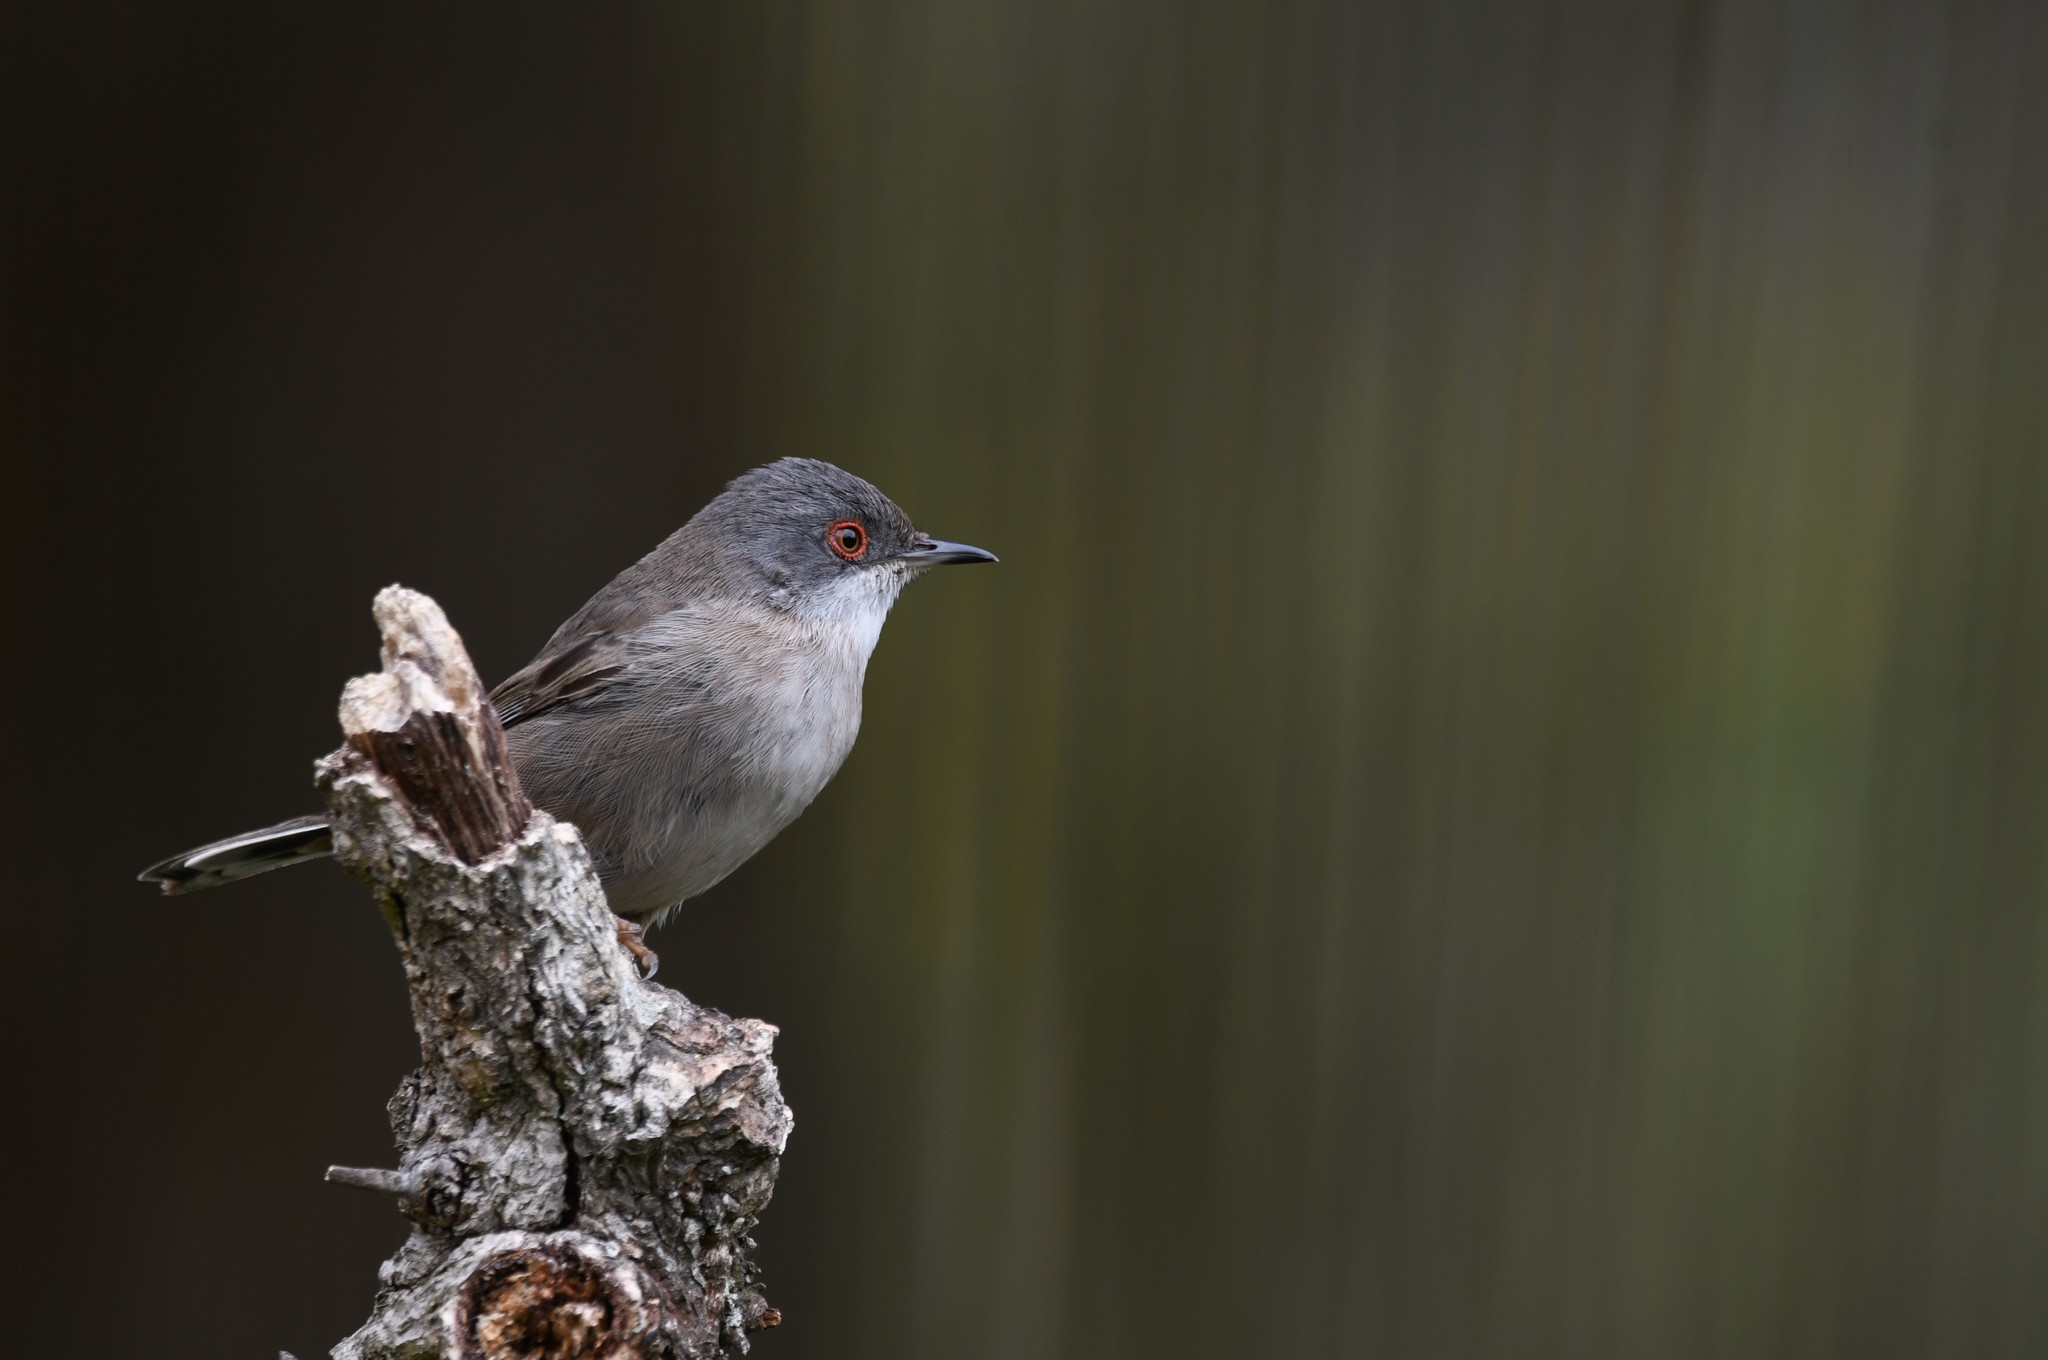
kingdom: Animalia
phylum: Chordata
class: Aves
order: Passeriformes
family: Sylviidae
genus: Curruca
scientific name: Curruca melanocephala
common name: Sardinian warbler
